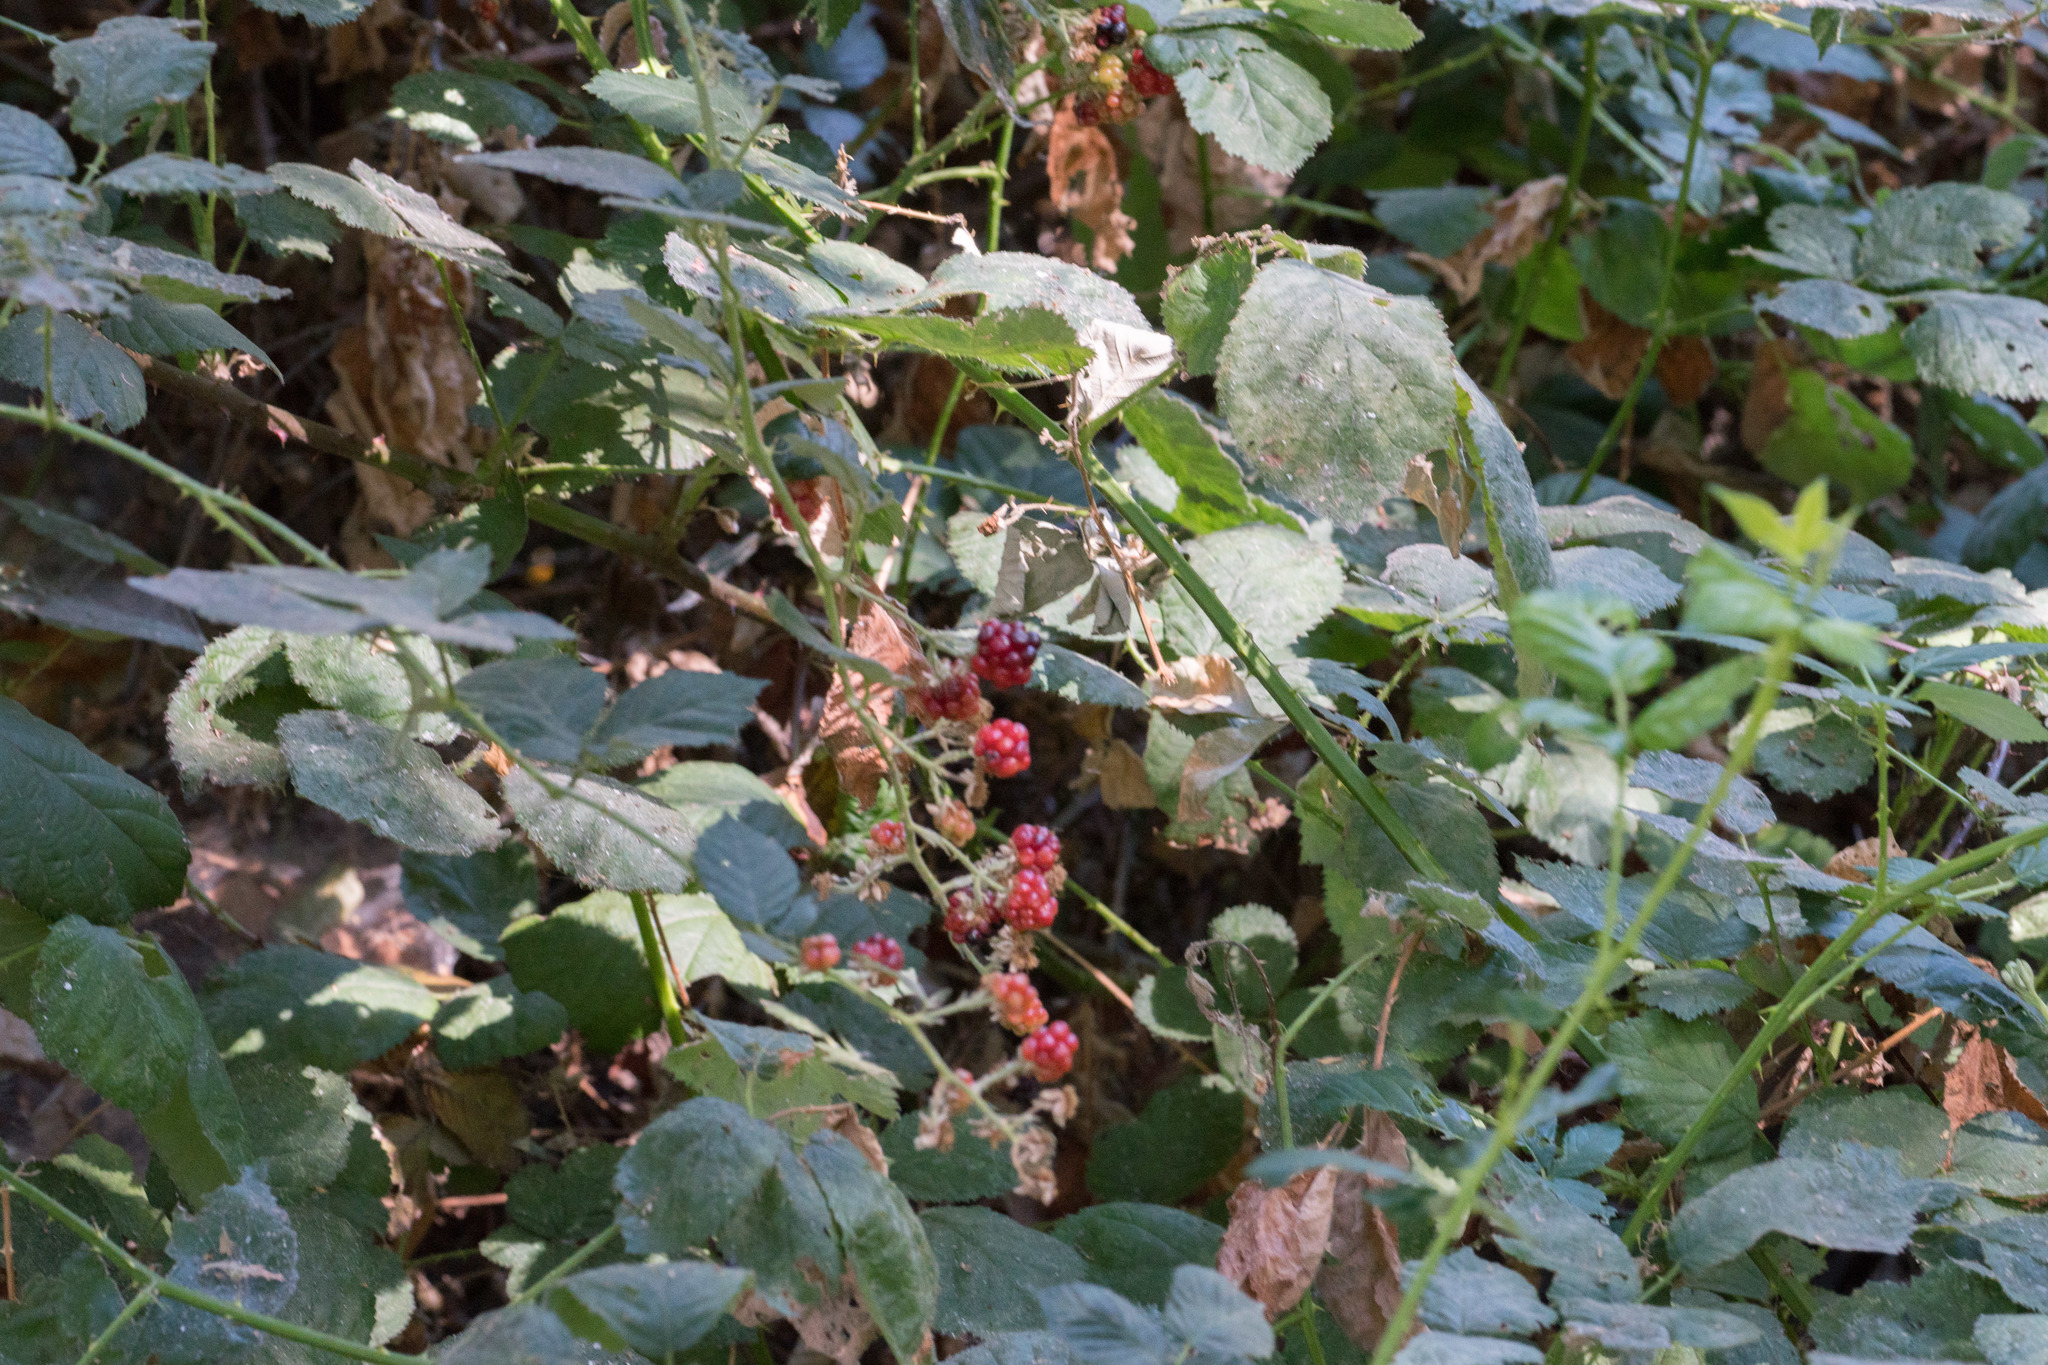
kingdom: Plantae
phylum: Tracheophyta
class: Magnoliopsida
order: Rosales
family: Rosaceae
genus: Rubus
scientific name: Rubus armeniacus
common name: Himalayan blackberry
